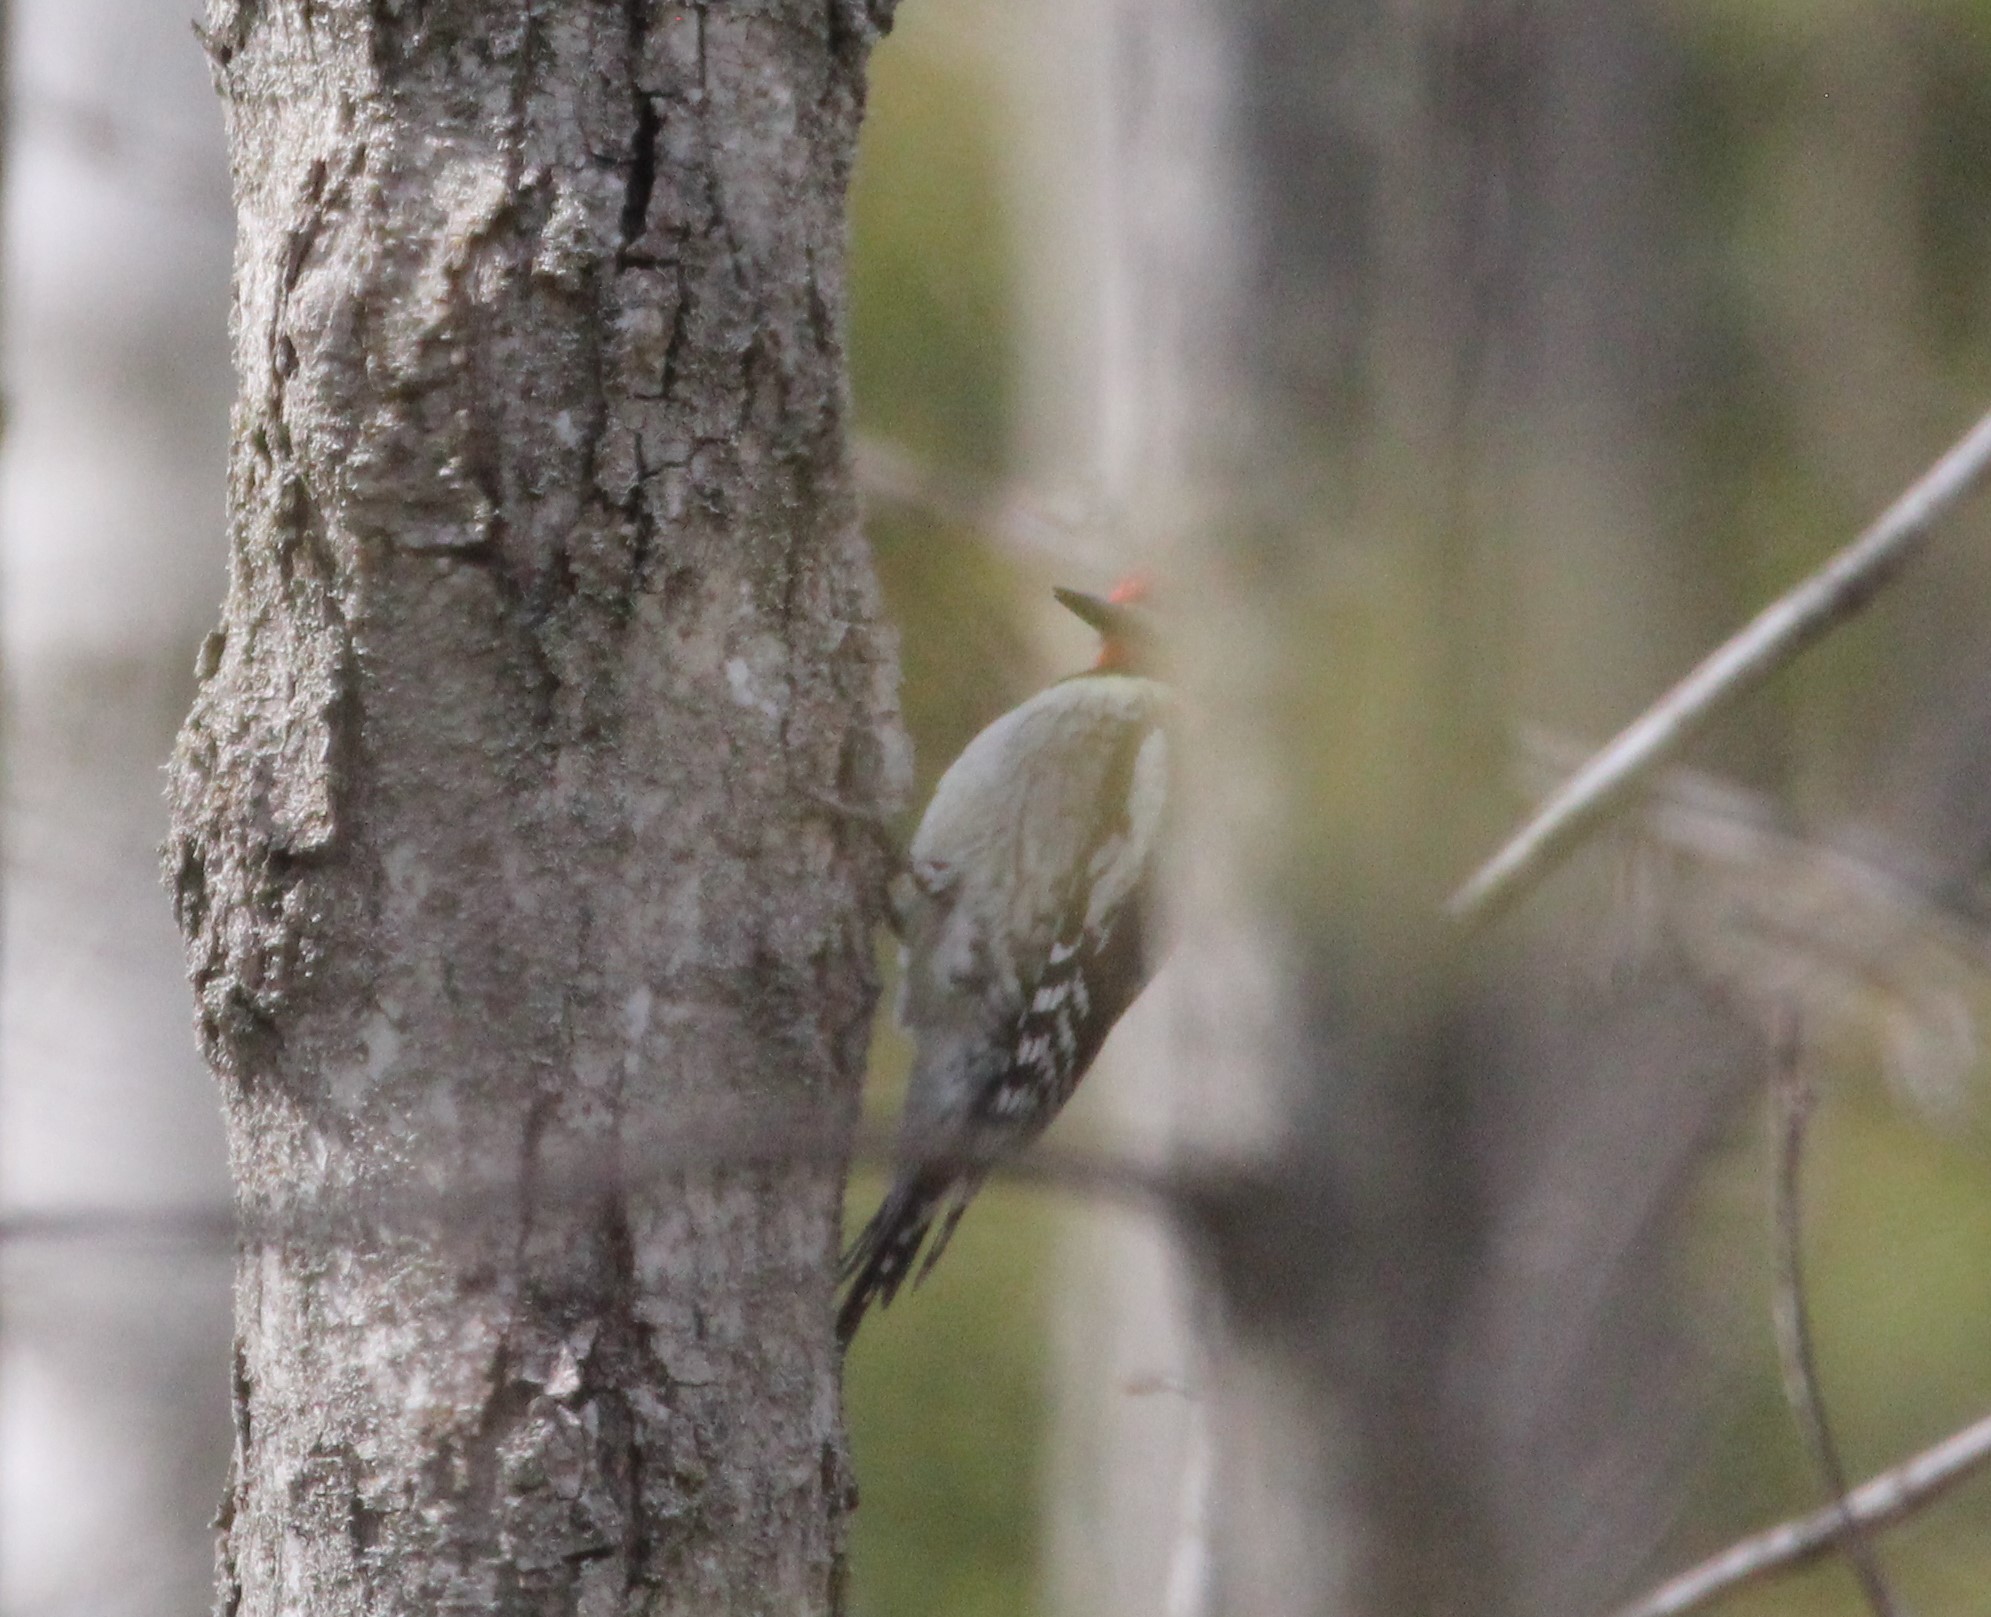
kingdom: Animalia
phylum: Chordata
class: Aves
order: Piciformes
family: Picidae
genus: Sphyrapicus
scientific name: Sphyrapicus varius
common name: Yellow-bellied sapsucker
